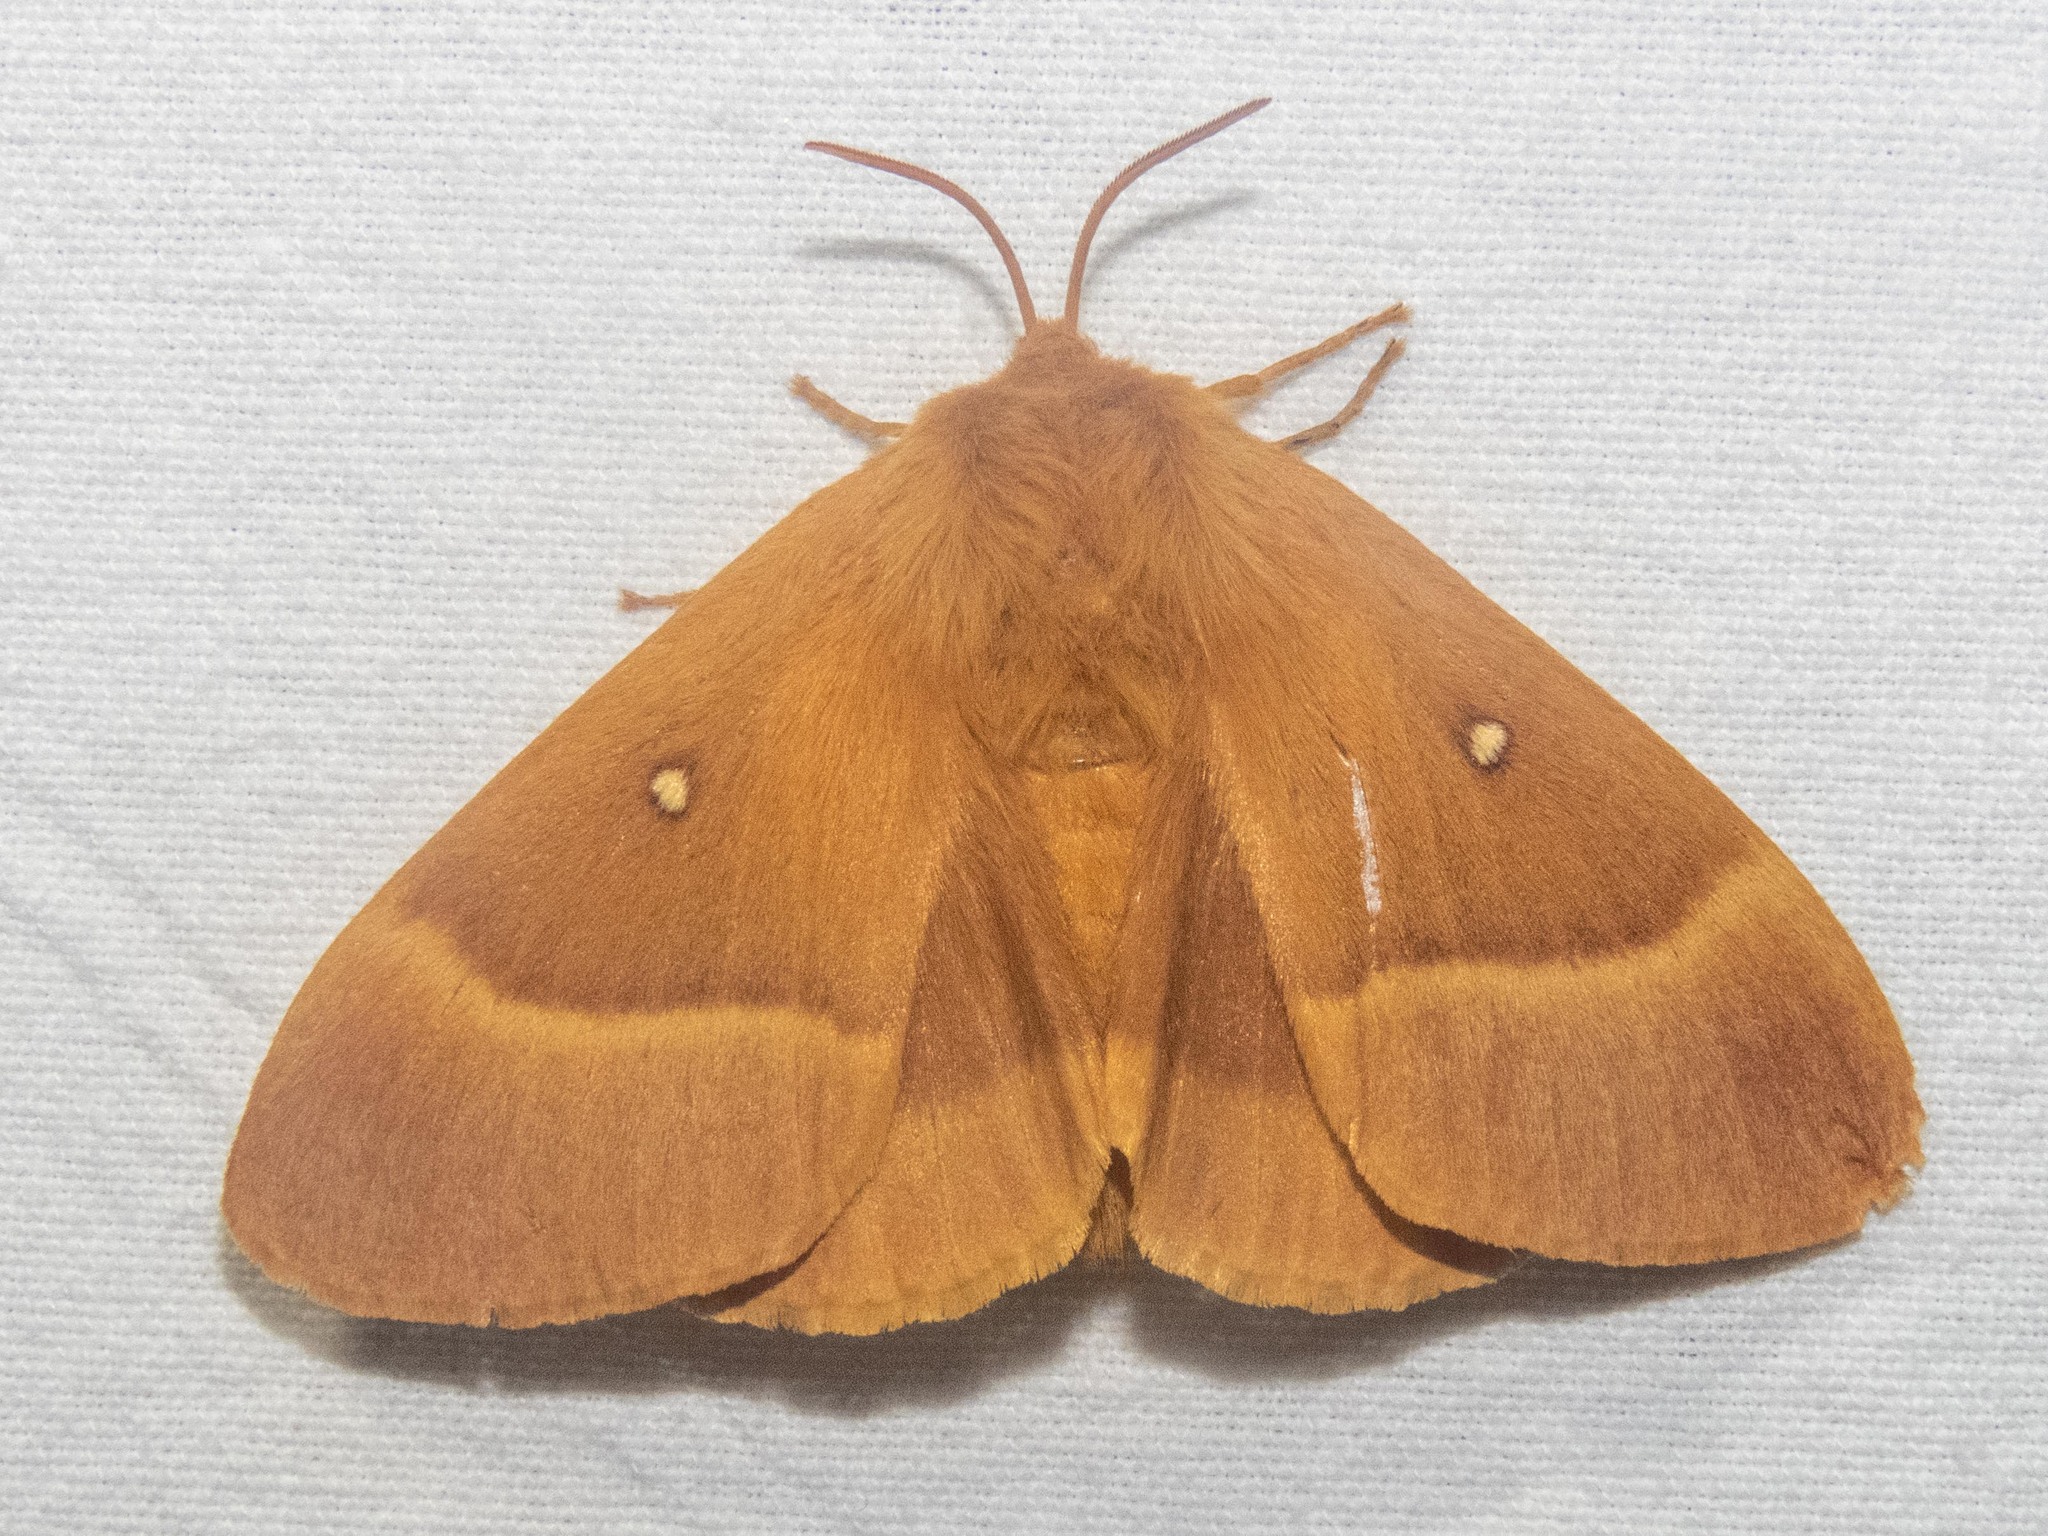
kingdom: Animalia
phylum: Arthropoda
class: Insecta
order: Lepidoptera
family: Lasiocampidae
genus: Lasiocampa
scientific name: Lasiocampa quercus
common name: Oak eggar
